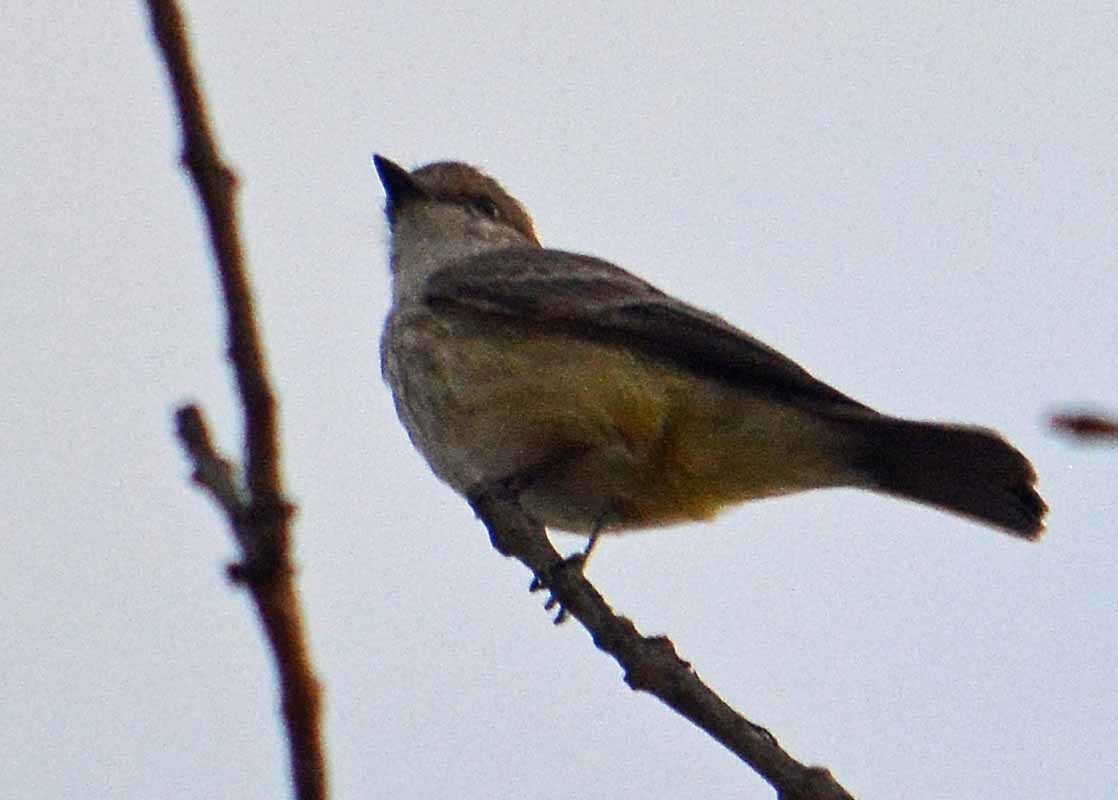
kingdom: Animalia
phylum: Chordata
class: Aves
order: Passeriformes
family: Tyrannidae
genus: Pyrocephalus
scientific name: Pyrocephalus rubinus
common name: Vermilion flycatcher
